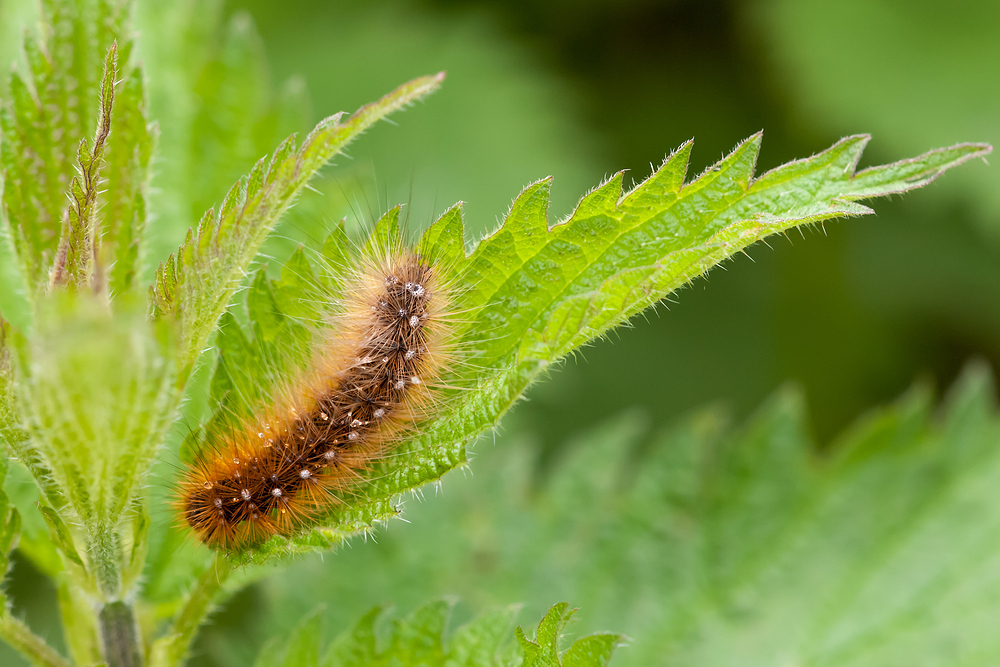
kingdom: Animalia
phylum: Arthropoda
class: Insecta
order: Lepidoptera
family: Erebidae
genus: Arctia
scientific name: Arctia caja
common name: Garden tiger
